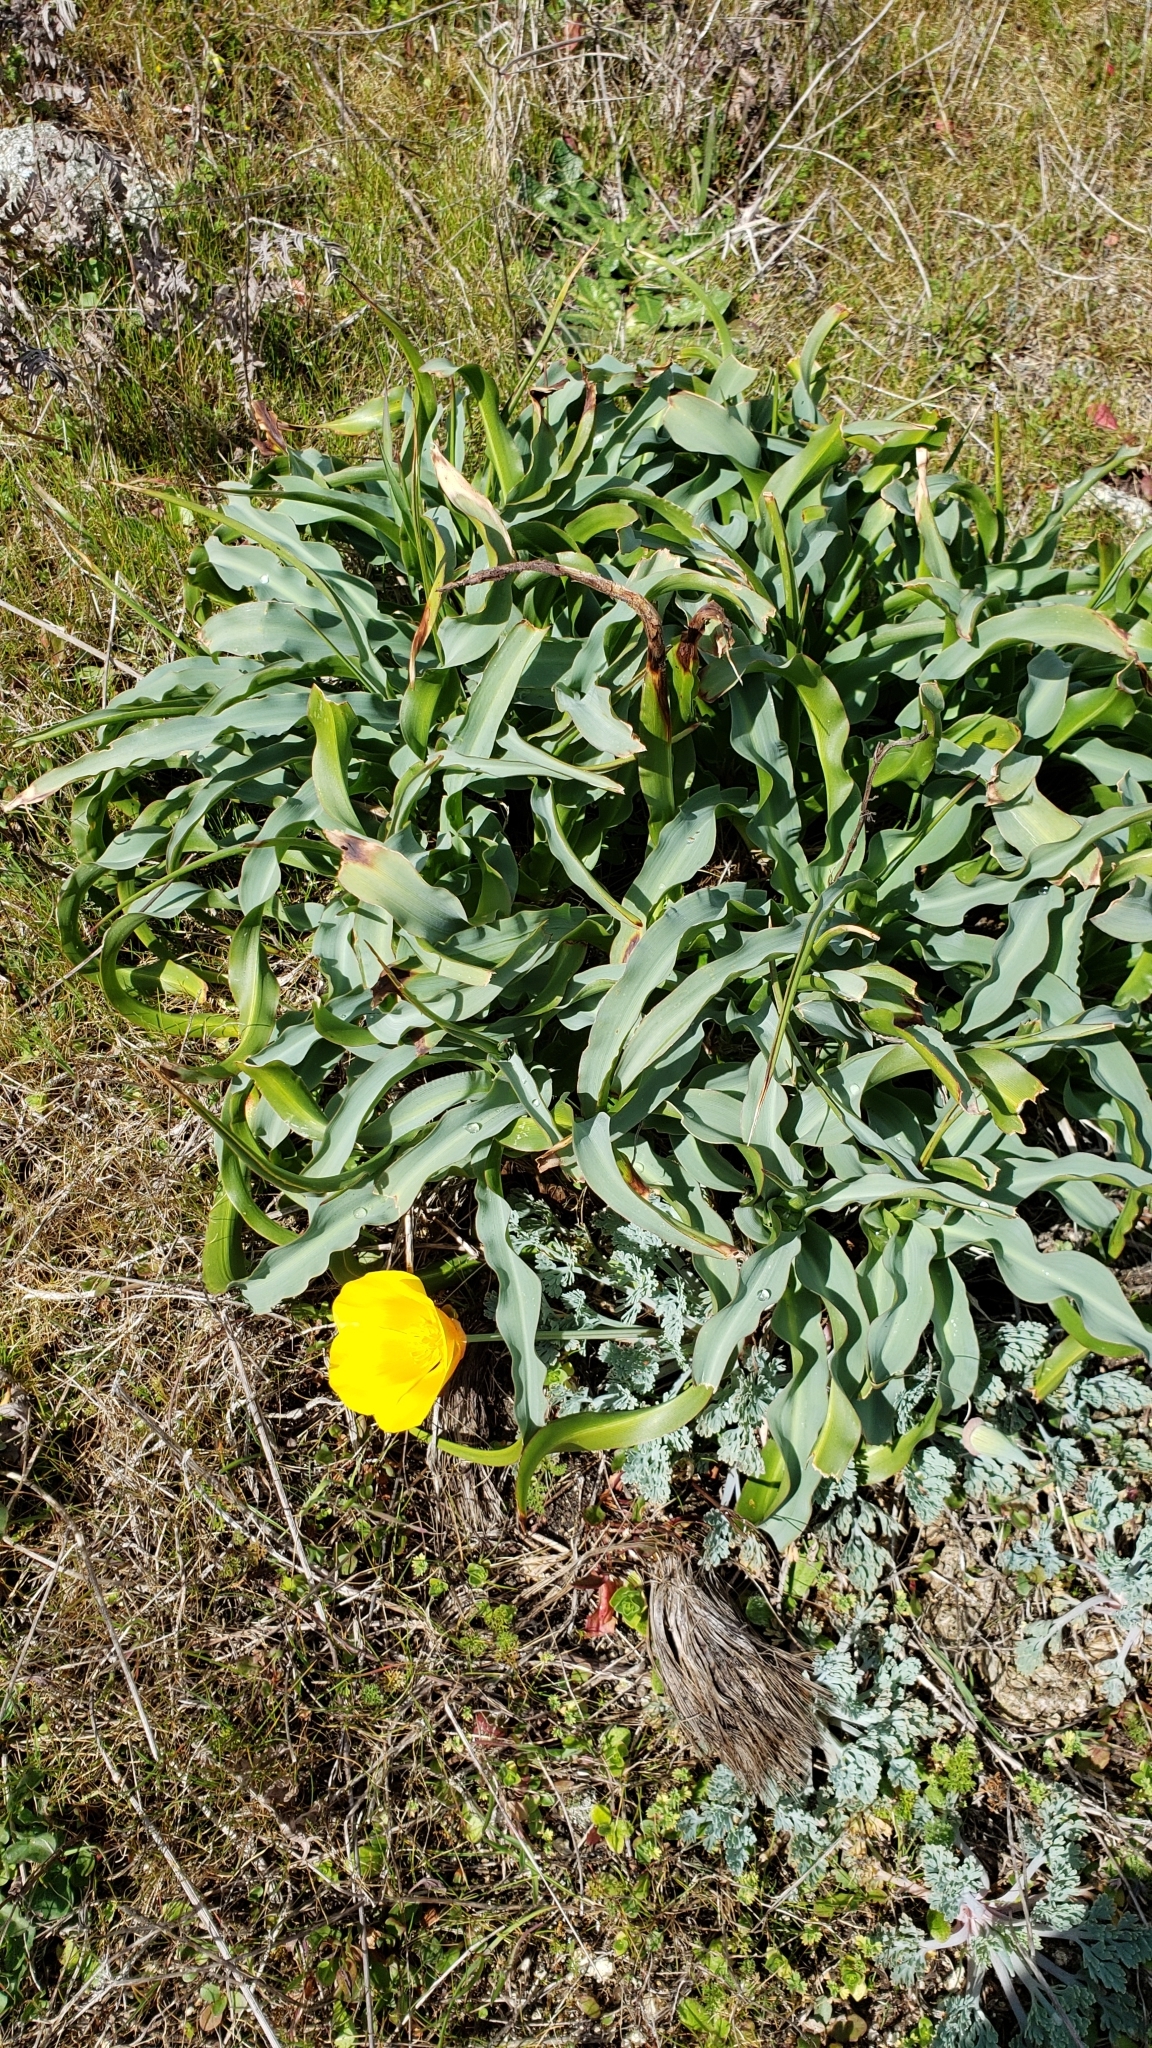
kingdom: Plantae
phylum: Tracheophyta
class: Liliopsida
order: Asparagales
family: Asparagaceae
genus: Chlorogalum
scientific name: Chlorogalum pomeridianum
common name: Amole
